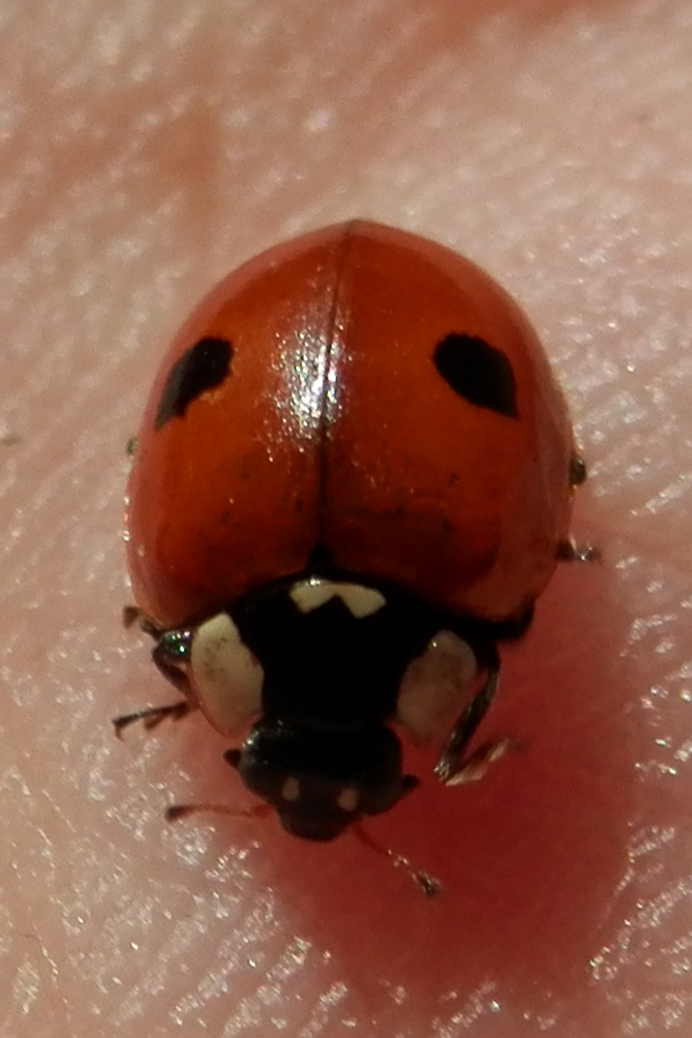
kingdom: Animalia
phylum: Arthropoda
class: Insecta
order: Coleoptera
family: Coccinellidae
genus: Adalia
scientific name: Adalia bipunctata
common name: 2-spot ladybird
